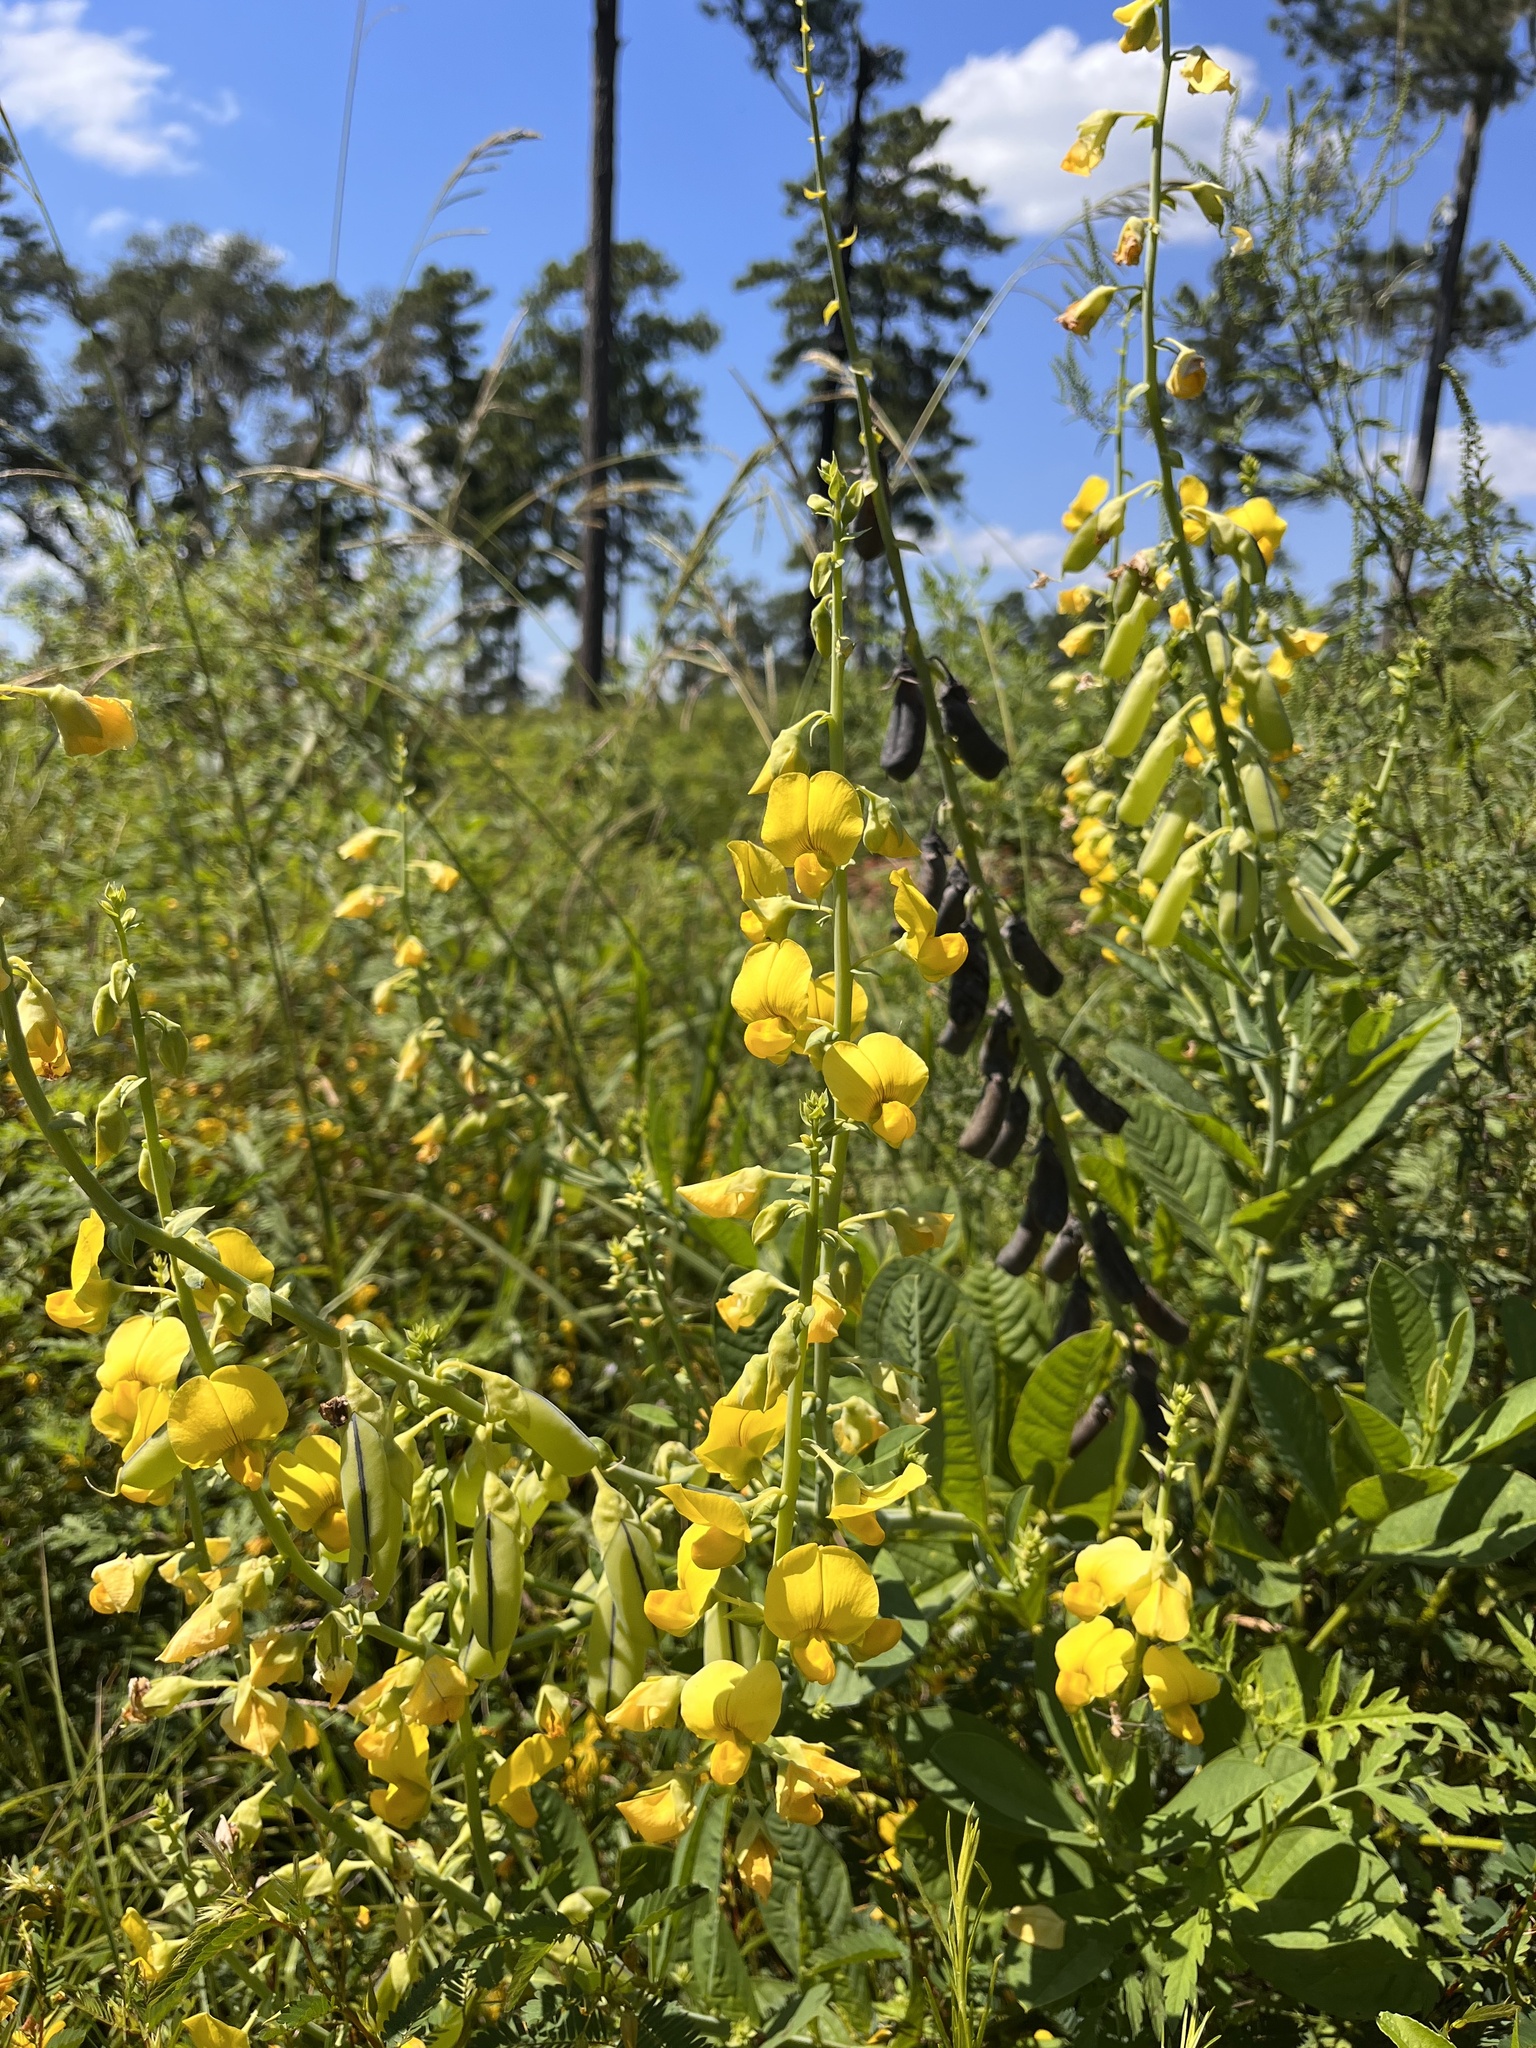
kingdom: Plantae
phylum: Tracheophyta
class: Magnoliopsida
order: Fabales
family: Fabaceae
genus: Crotalaria
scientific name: Crotalaria spectabilis
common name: Showy rattlebox
